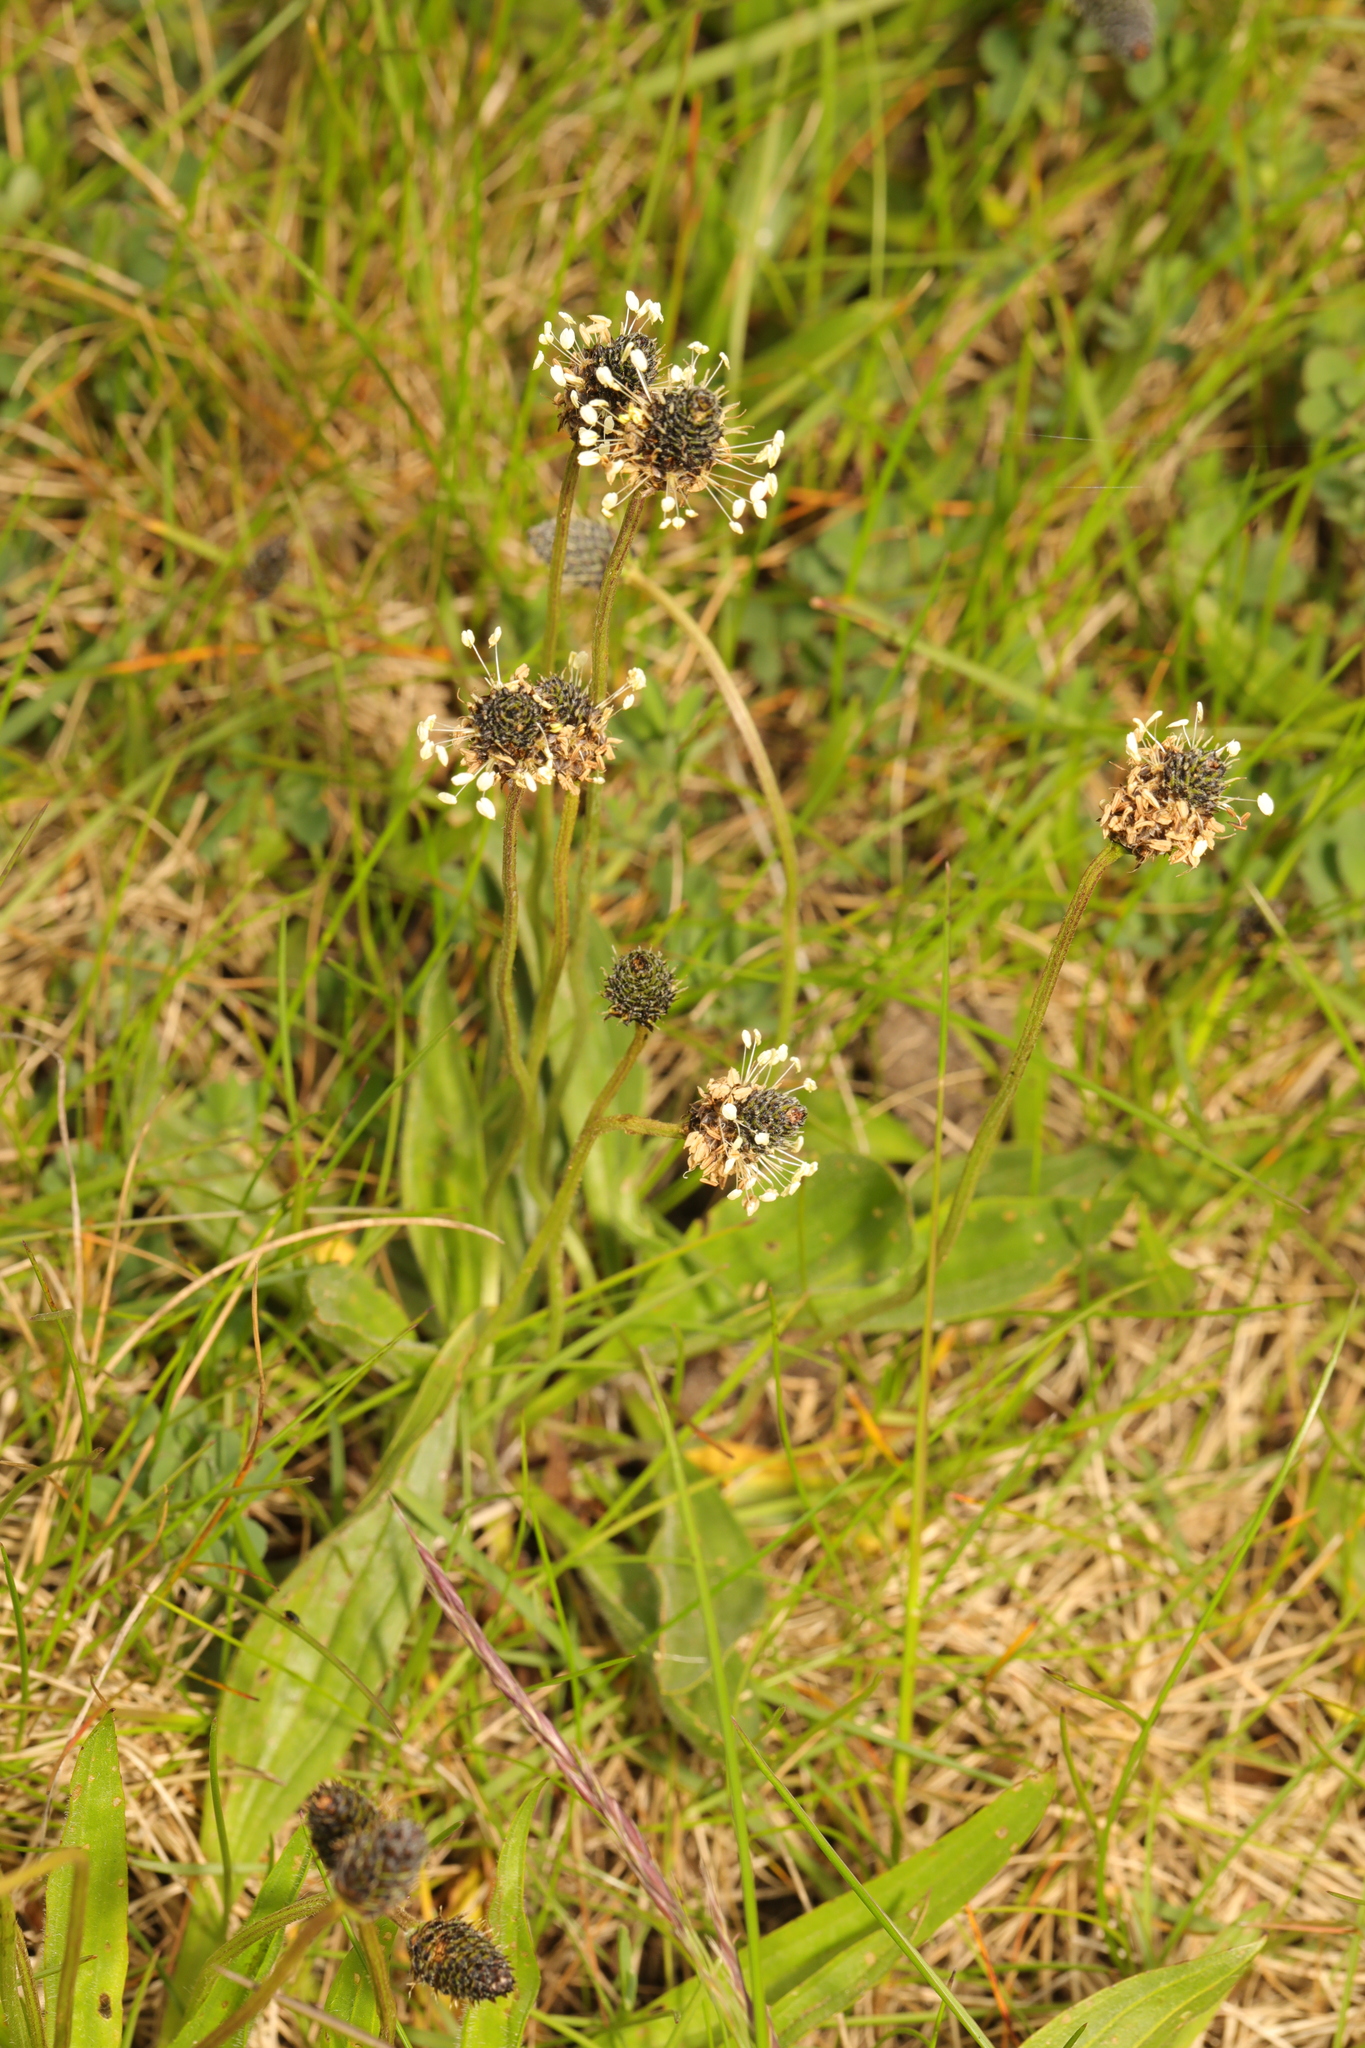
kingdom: Plantae
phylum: Tracheophyta
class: Magnoliopsida
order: Lamiales
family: Plantaginaceae
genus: Plantago
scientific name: Plantago lanceolata
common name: Ribwort plantain
